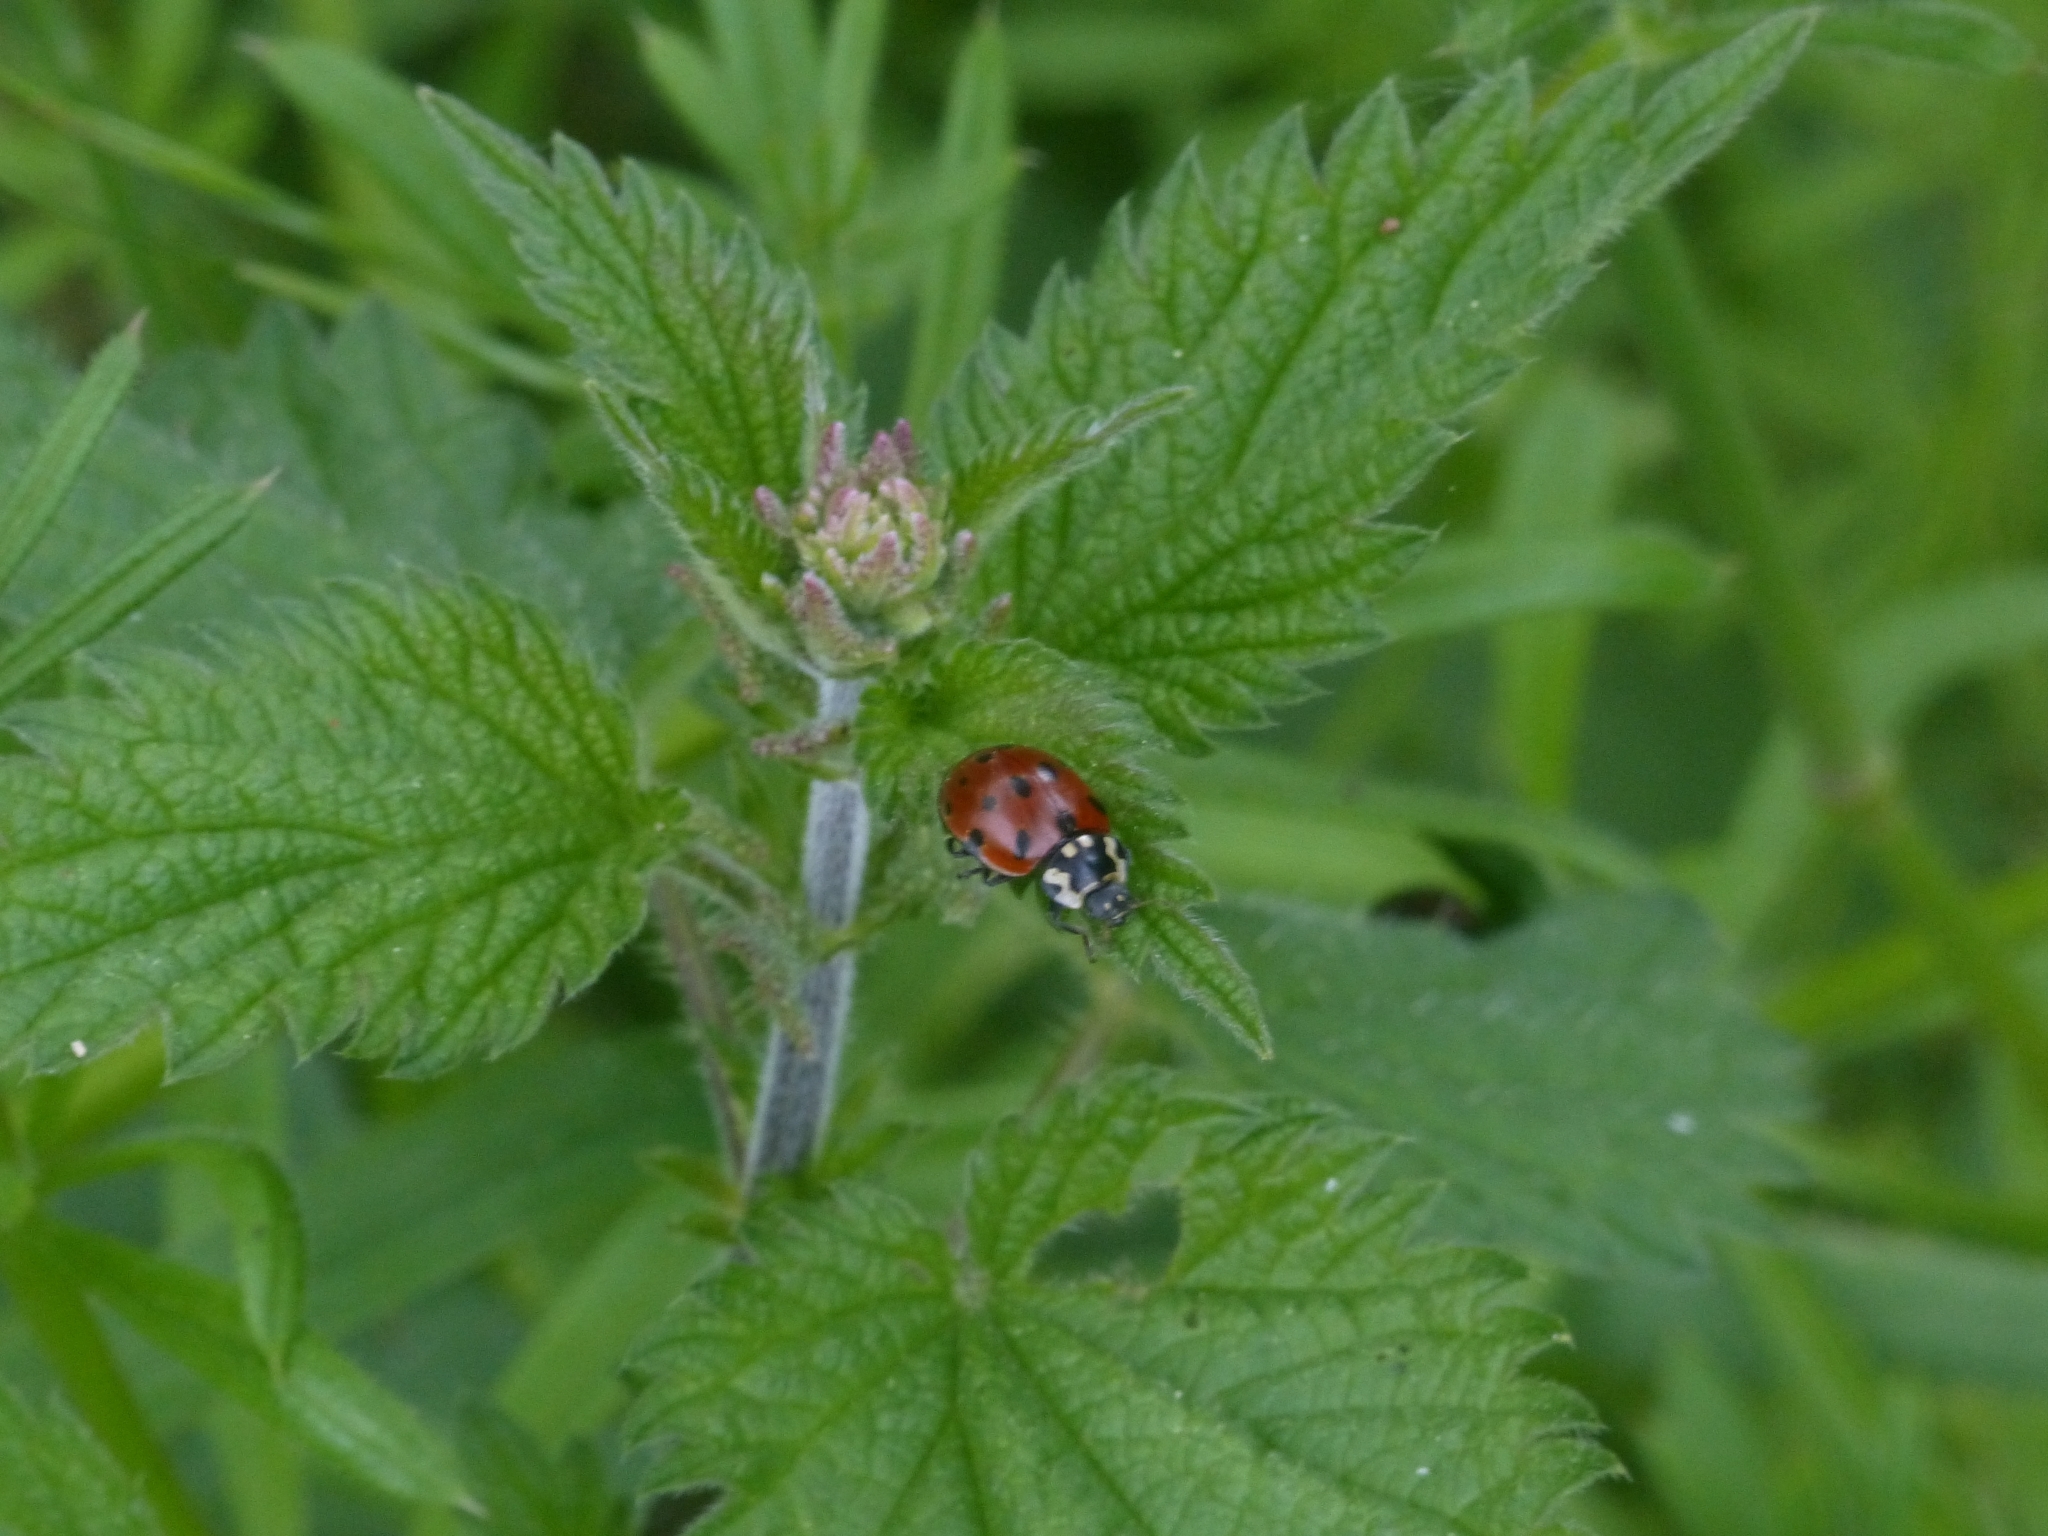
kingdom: Animalia
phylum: Arthropoda
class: Insecta
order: Coleoptera
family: Coccinellidae
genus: Anatis
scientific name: Anatis ocellata
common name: Eyed ladybird
